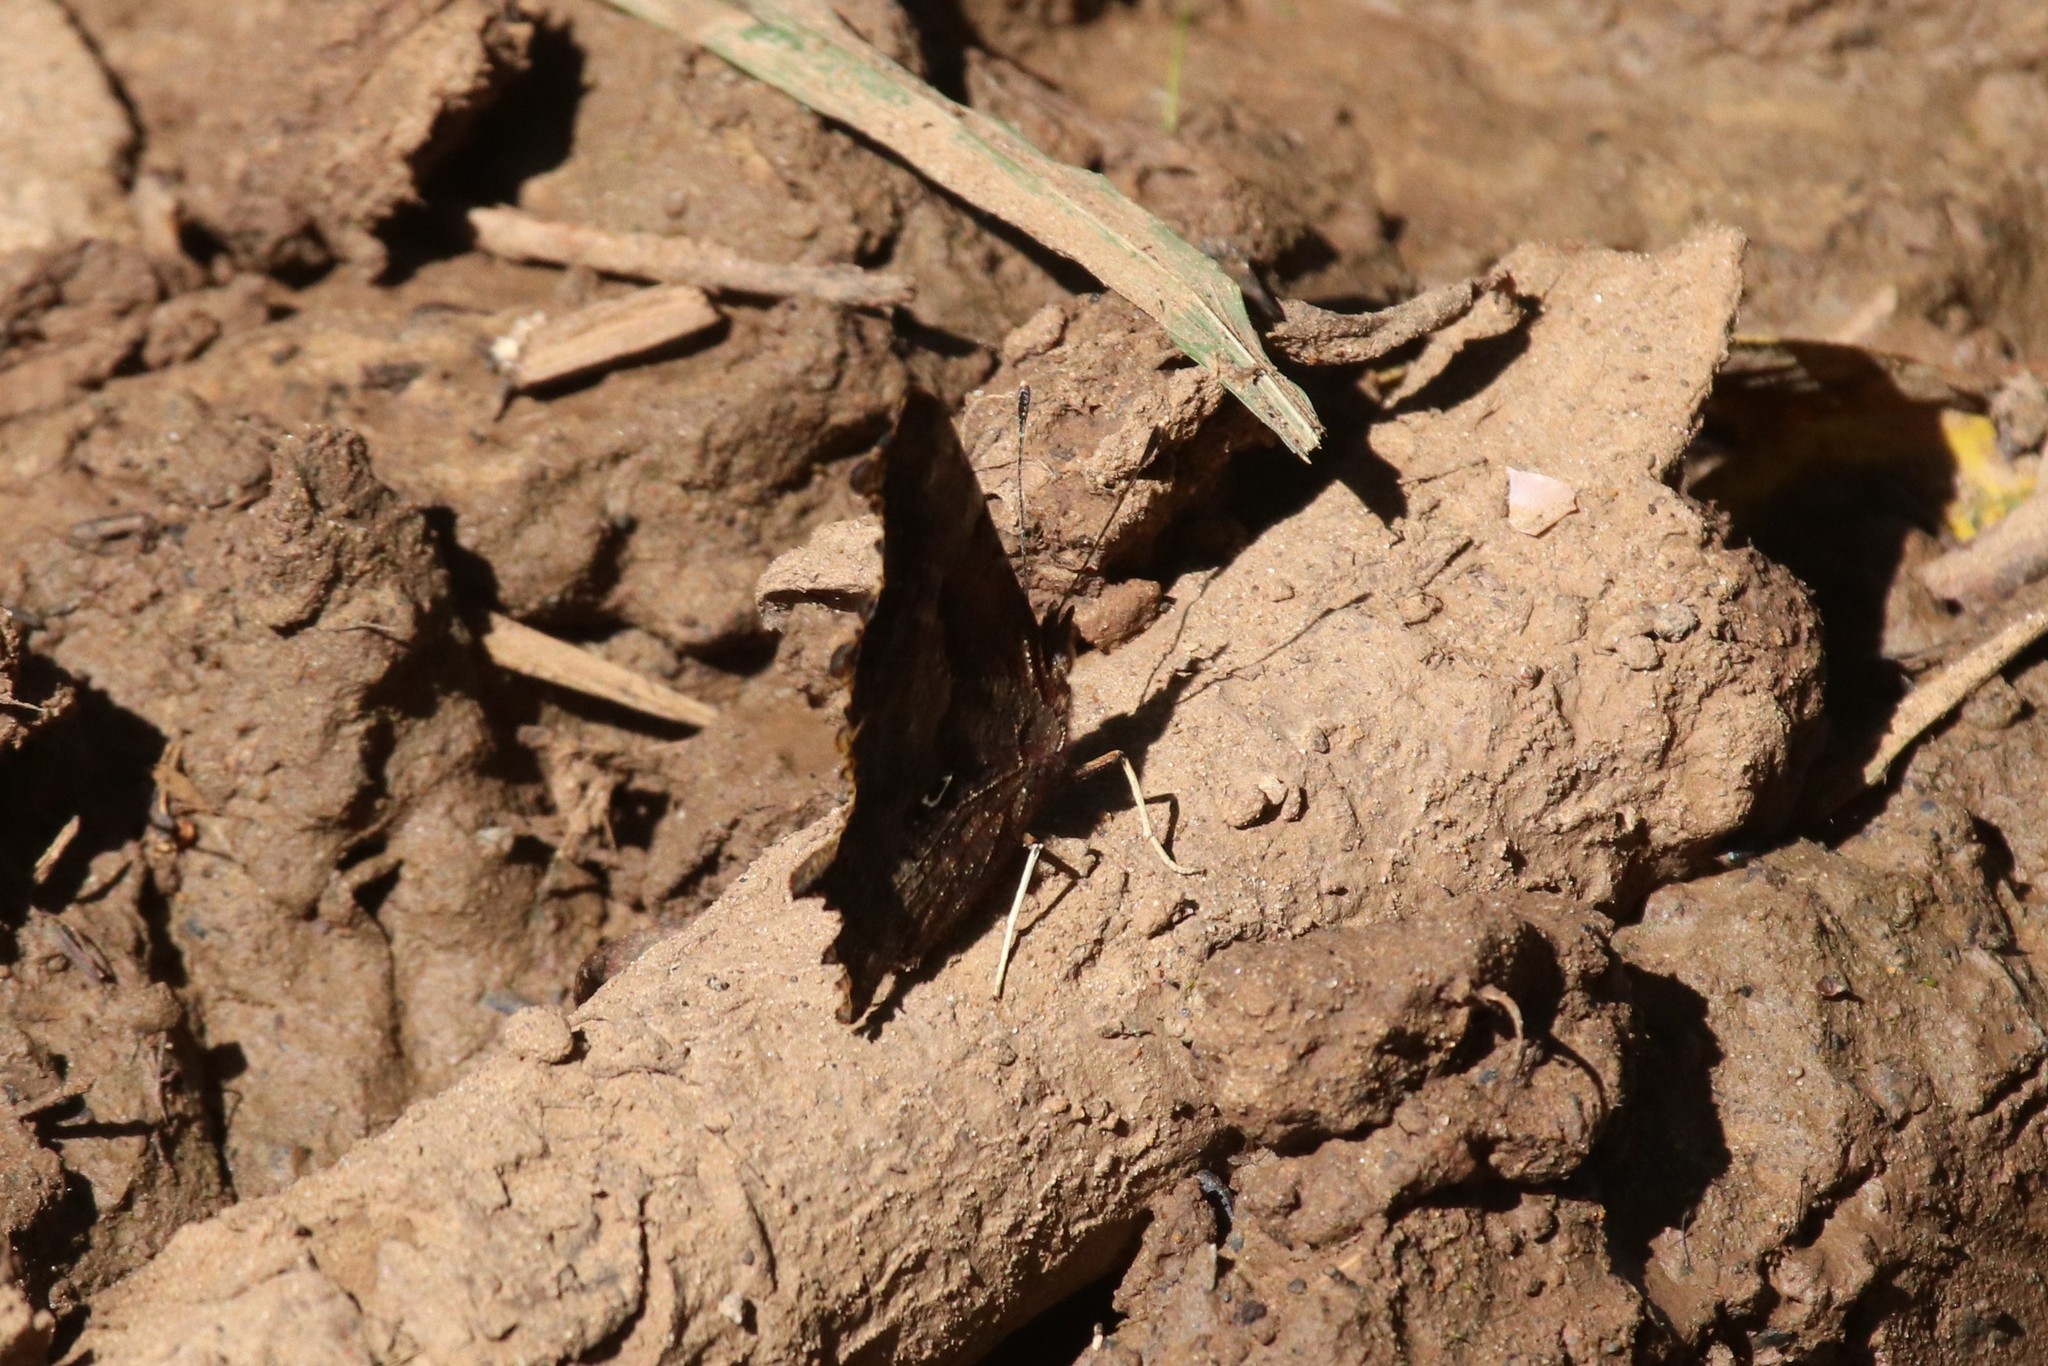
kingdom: Animalia
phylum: Arthropoda
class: Insecta
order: Lepidoptera
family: Nymphalidae
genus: Polygonia
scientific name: Polygonia c-album
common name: Comma
